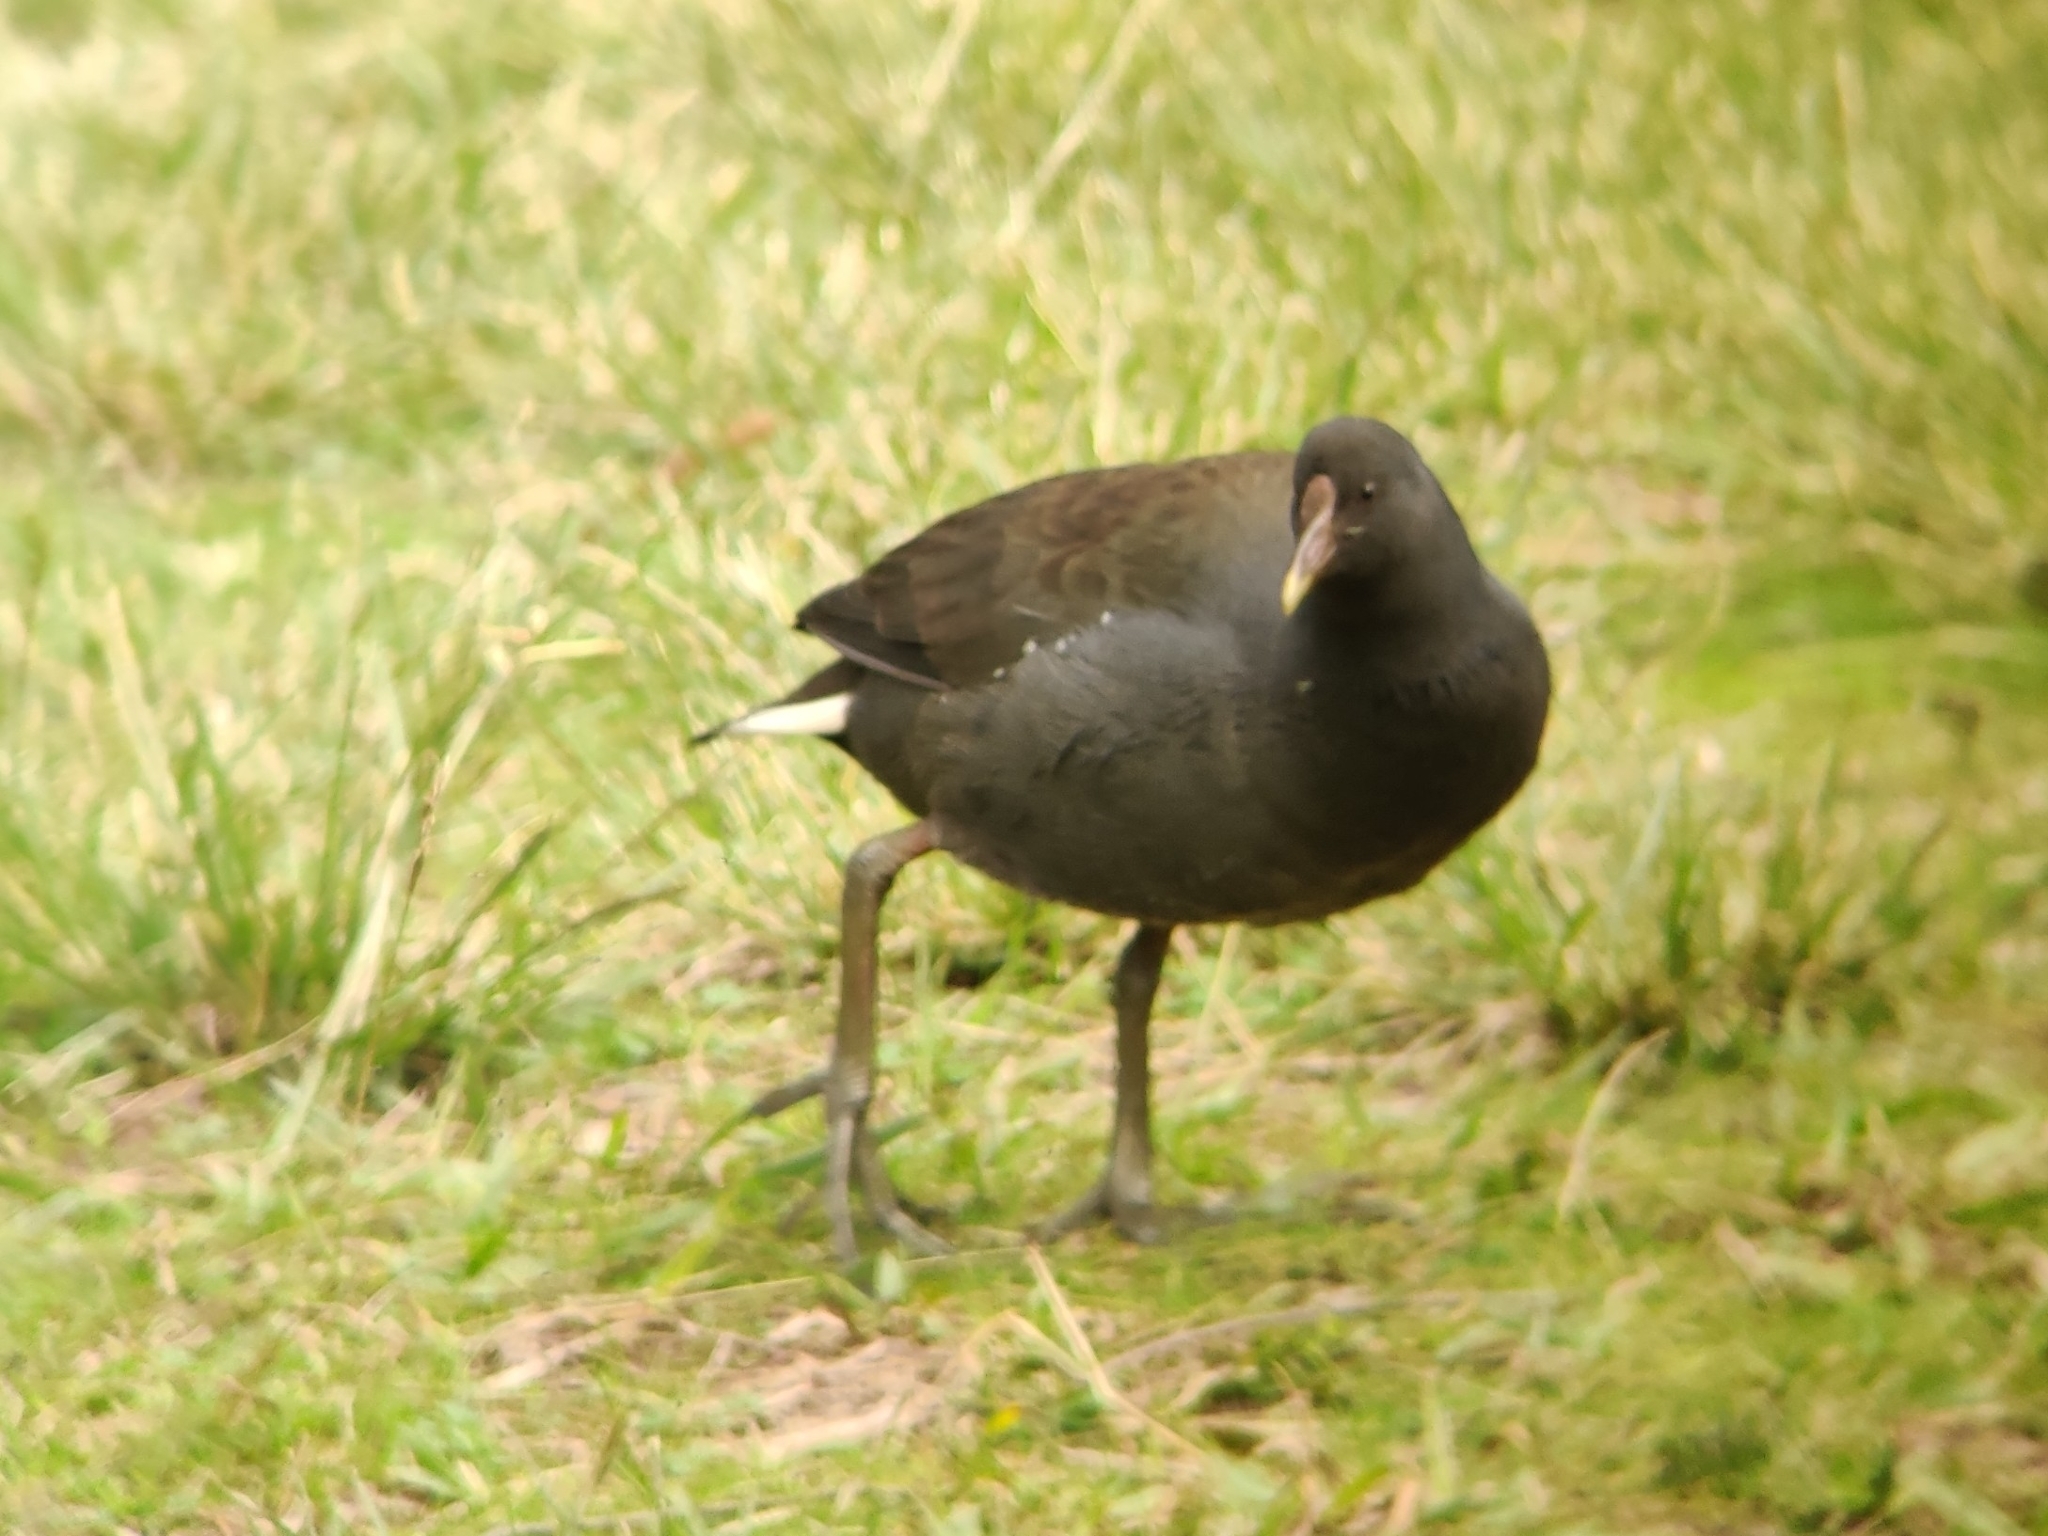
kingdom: Animalia
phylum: Chordata
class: Aves
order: Gruiformes
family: Rallidae
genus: Gallinula
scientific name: Gallinula tenebrosa
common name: Dusky moorhen
